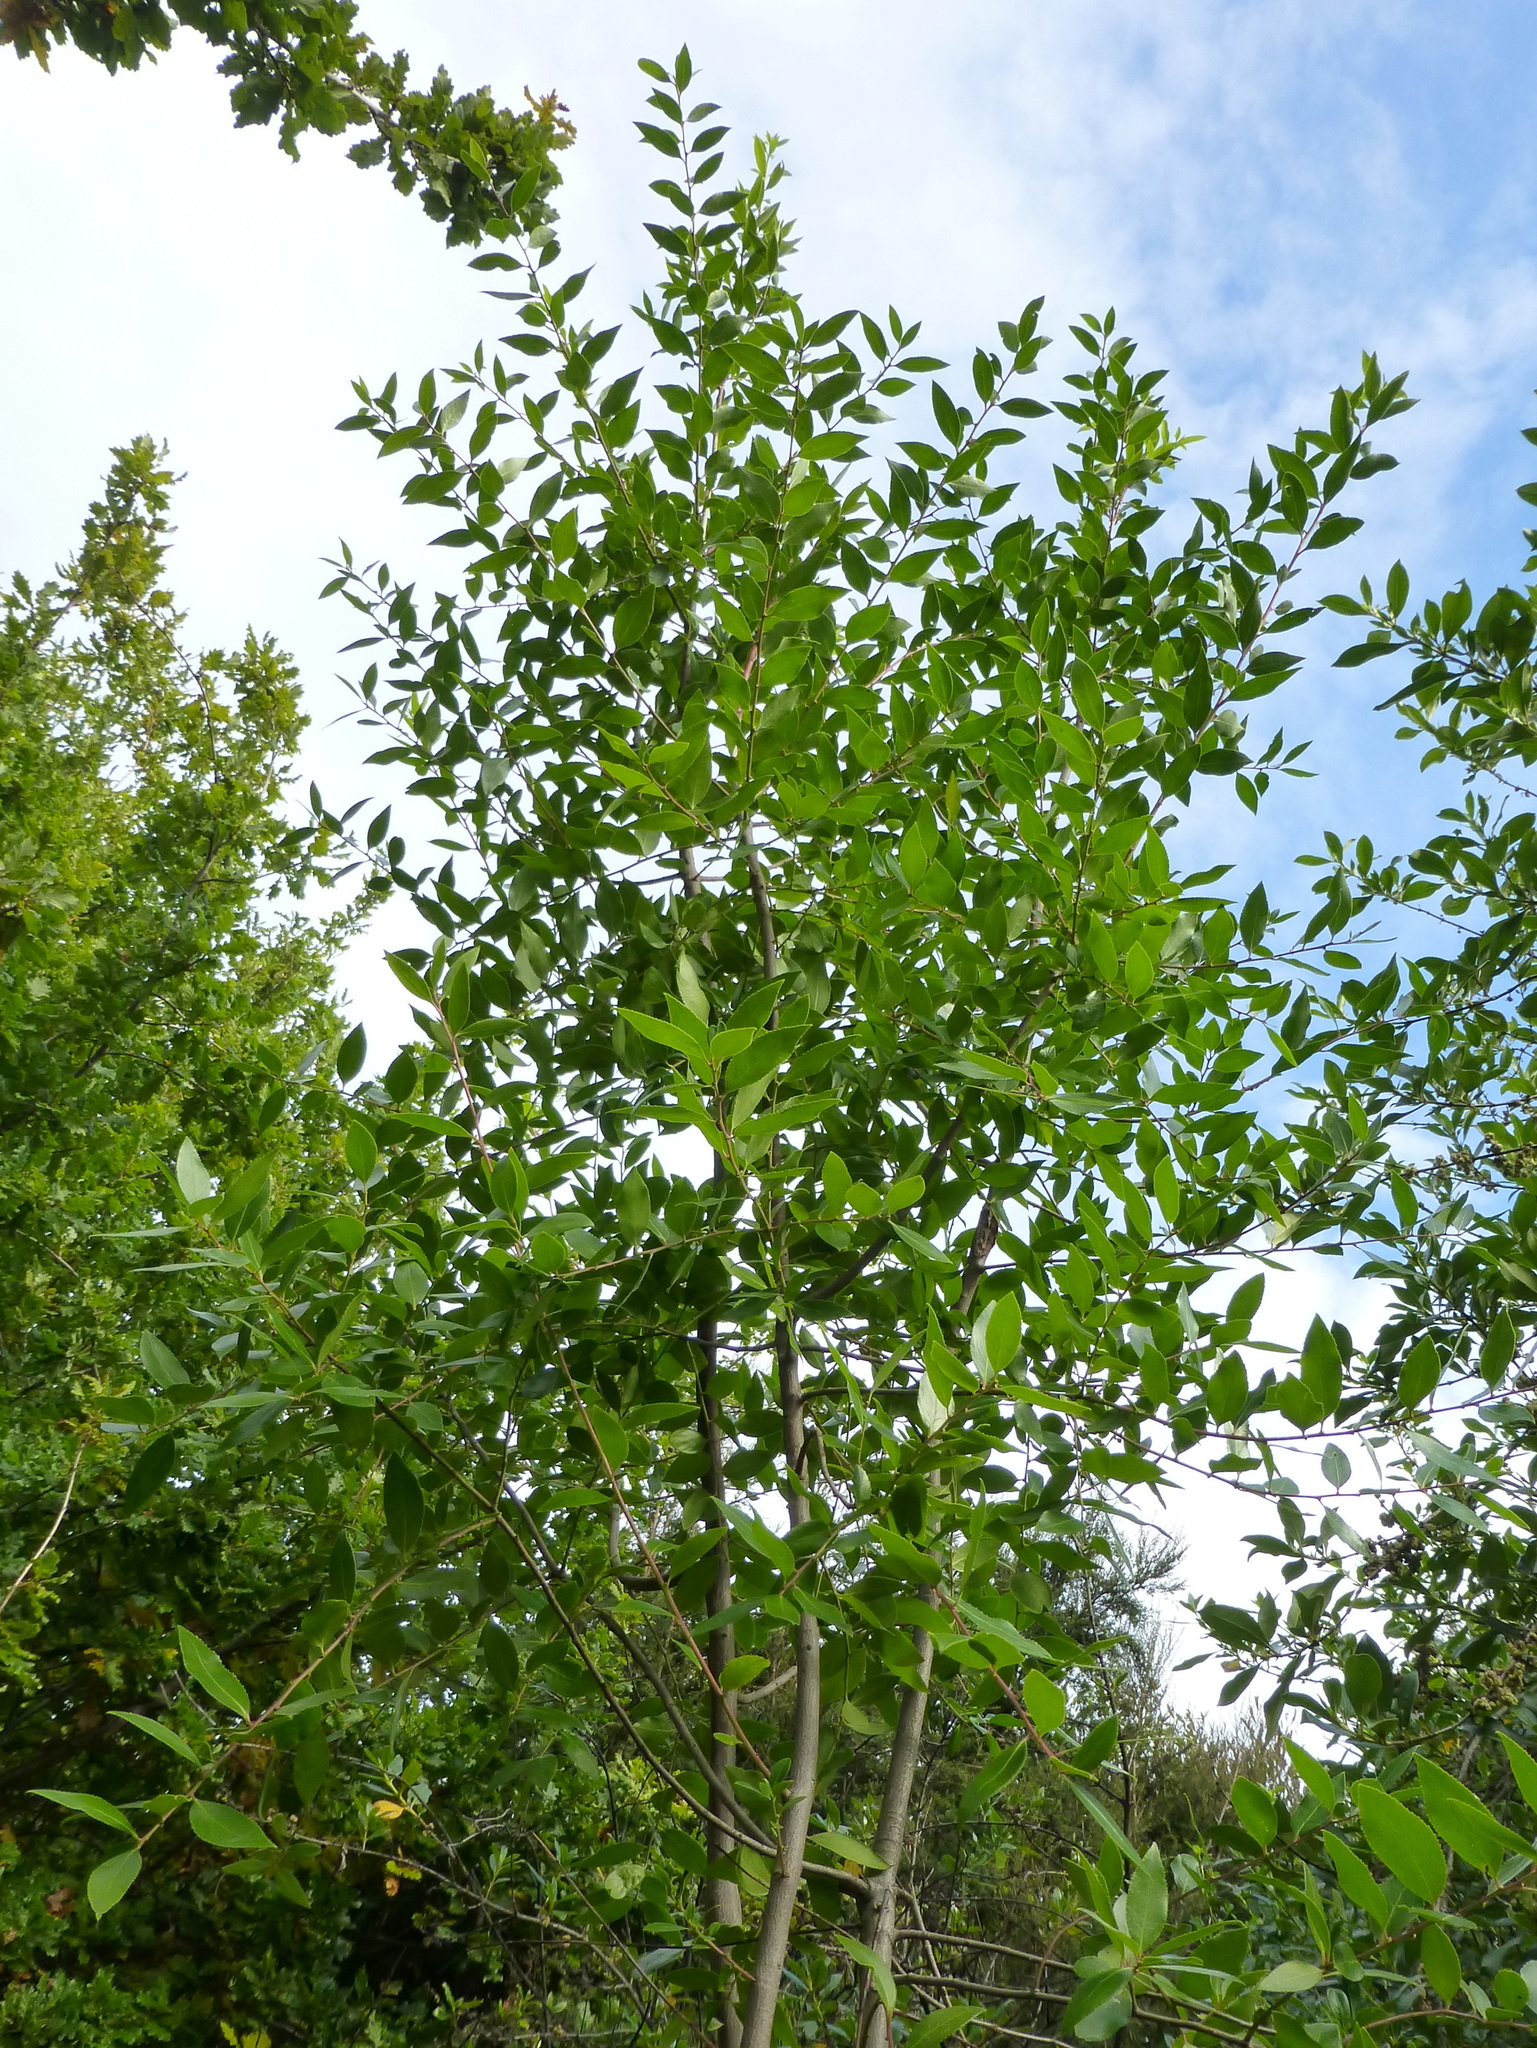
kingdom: Plantae
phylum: Tracheophyta
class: Magnoliopsida
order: Celastrales
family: Celastraceae
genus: Maytenus
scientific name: Maytenus boaria
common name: Mayten
